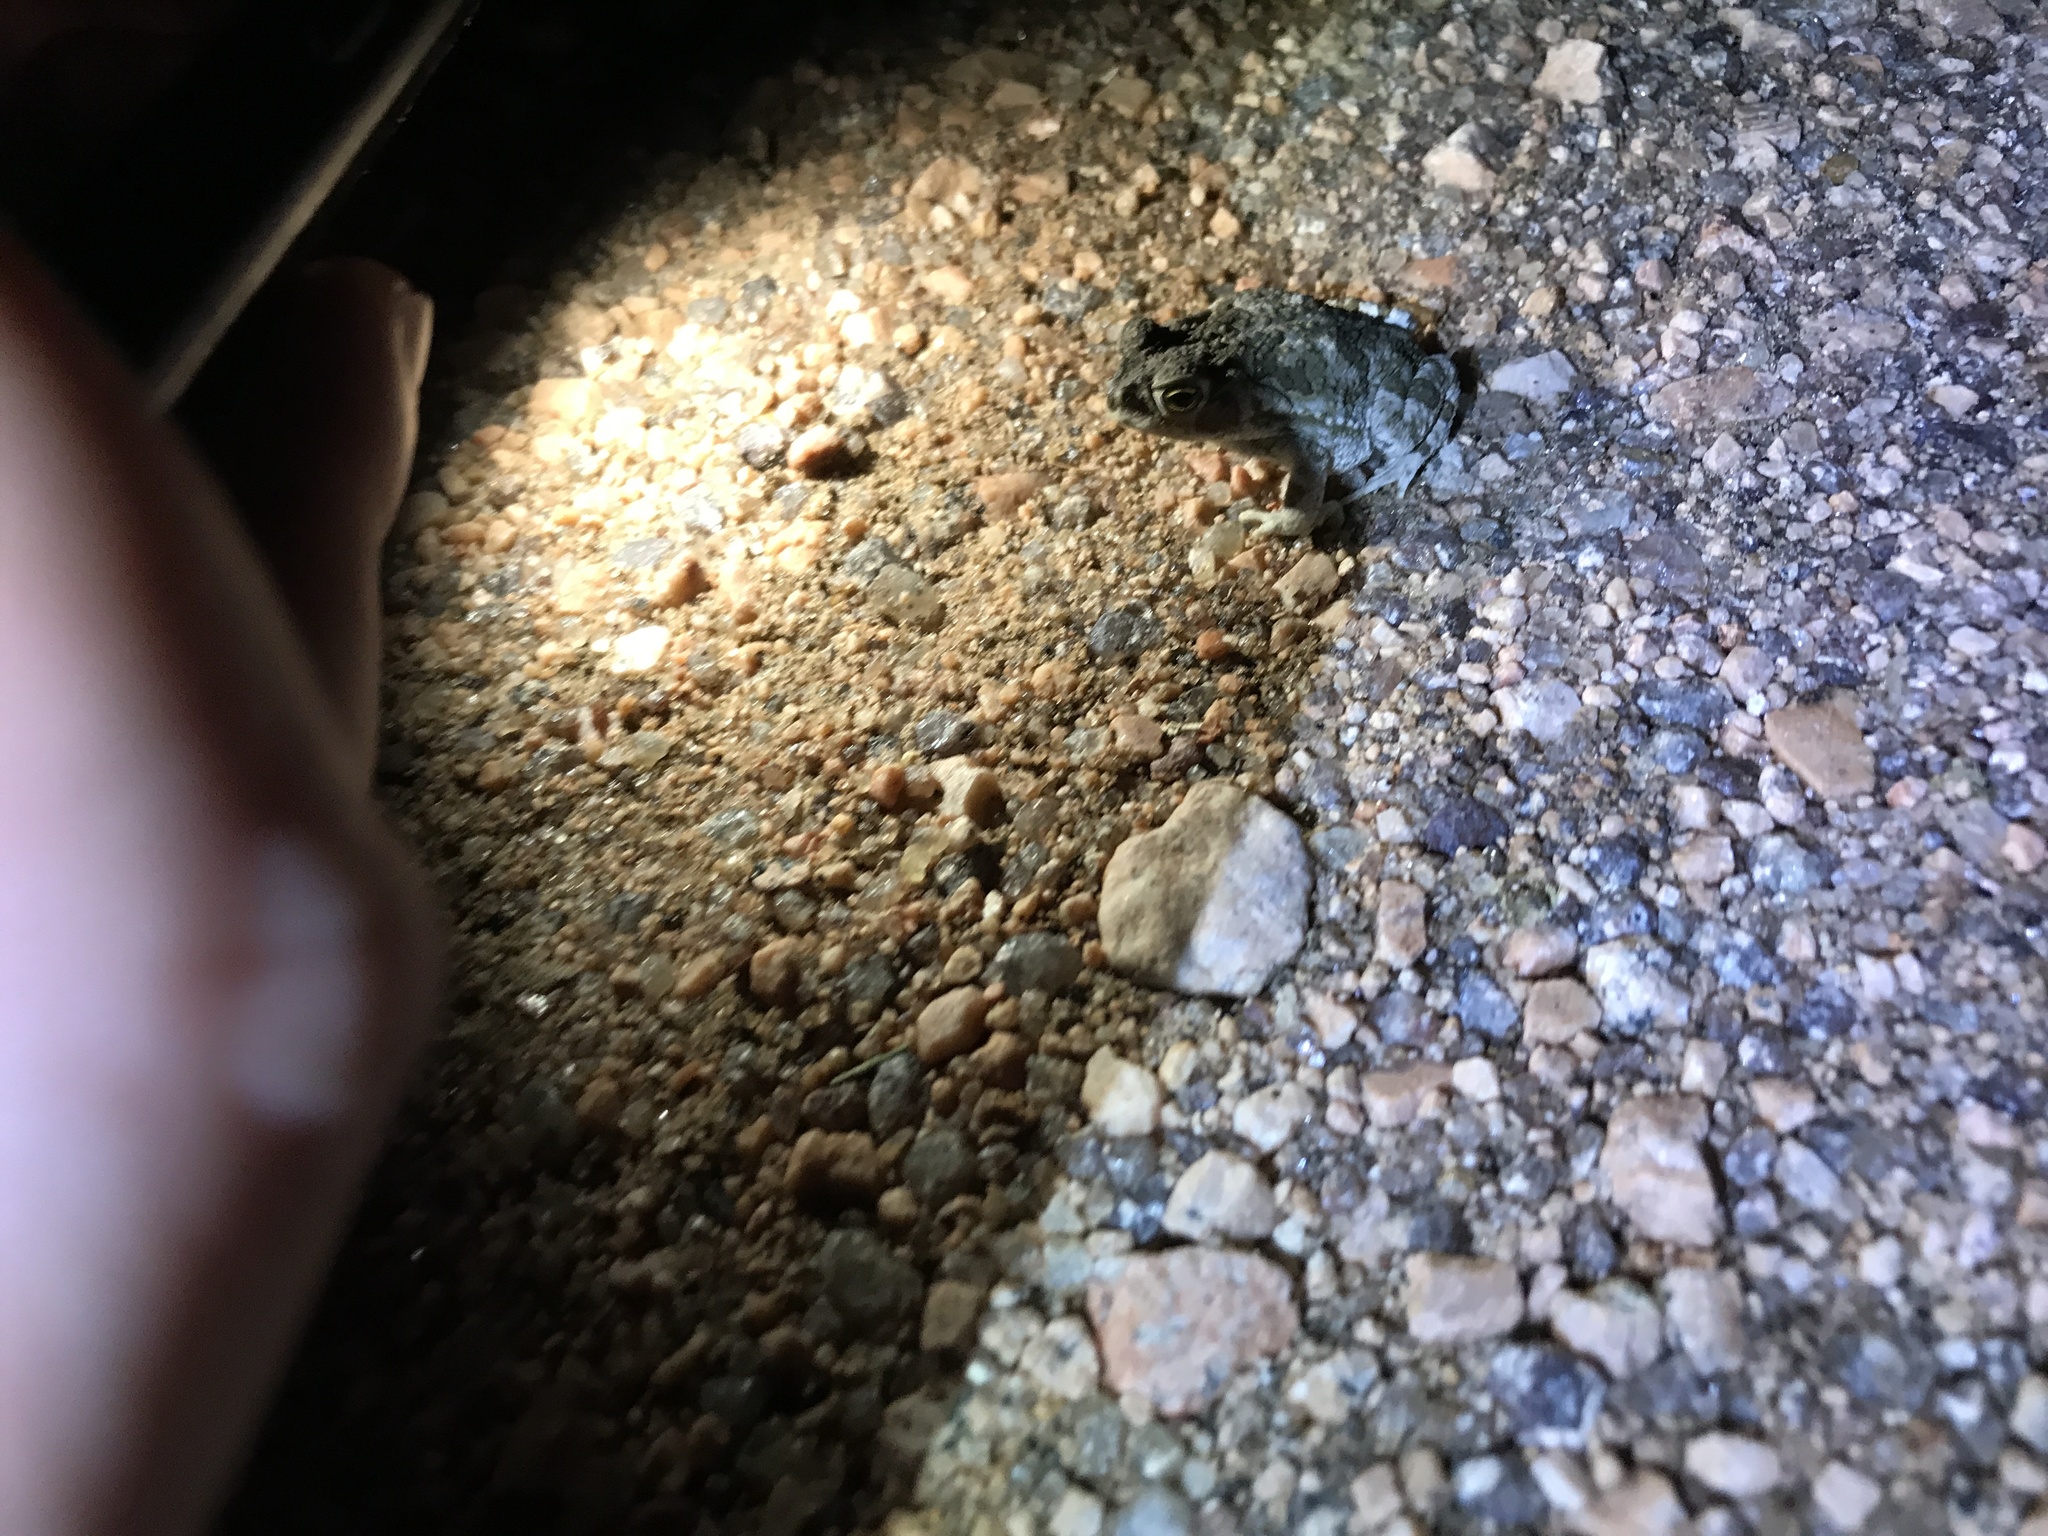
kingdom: Animalia
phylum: Chordata
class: Amphibia
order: Anura
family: Bufonidae
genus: Rhinella
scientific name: Rhinella arenarum
